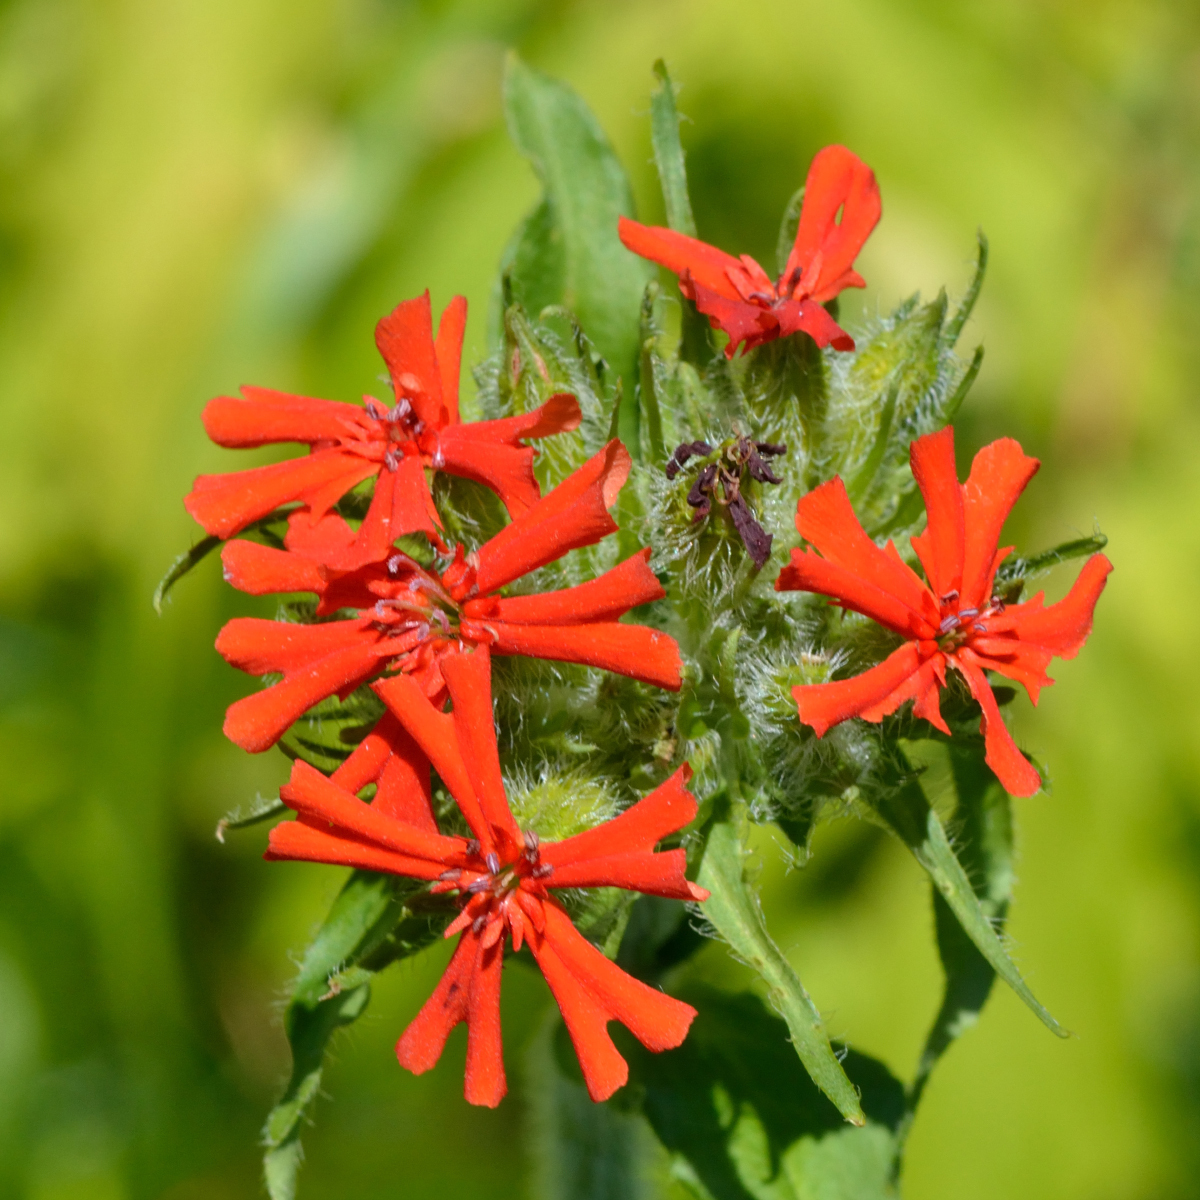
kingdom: Plantae
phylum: Tracheophyta
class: Magnoliopsida
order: Caryophyllales
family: Caryophyllaceae
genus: Silene
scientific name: Silene chalcedonica
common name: Maltese-cross
